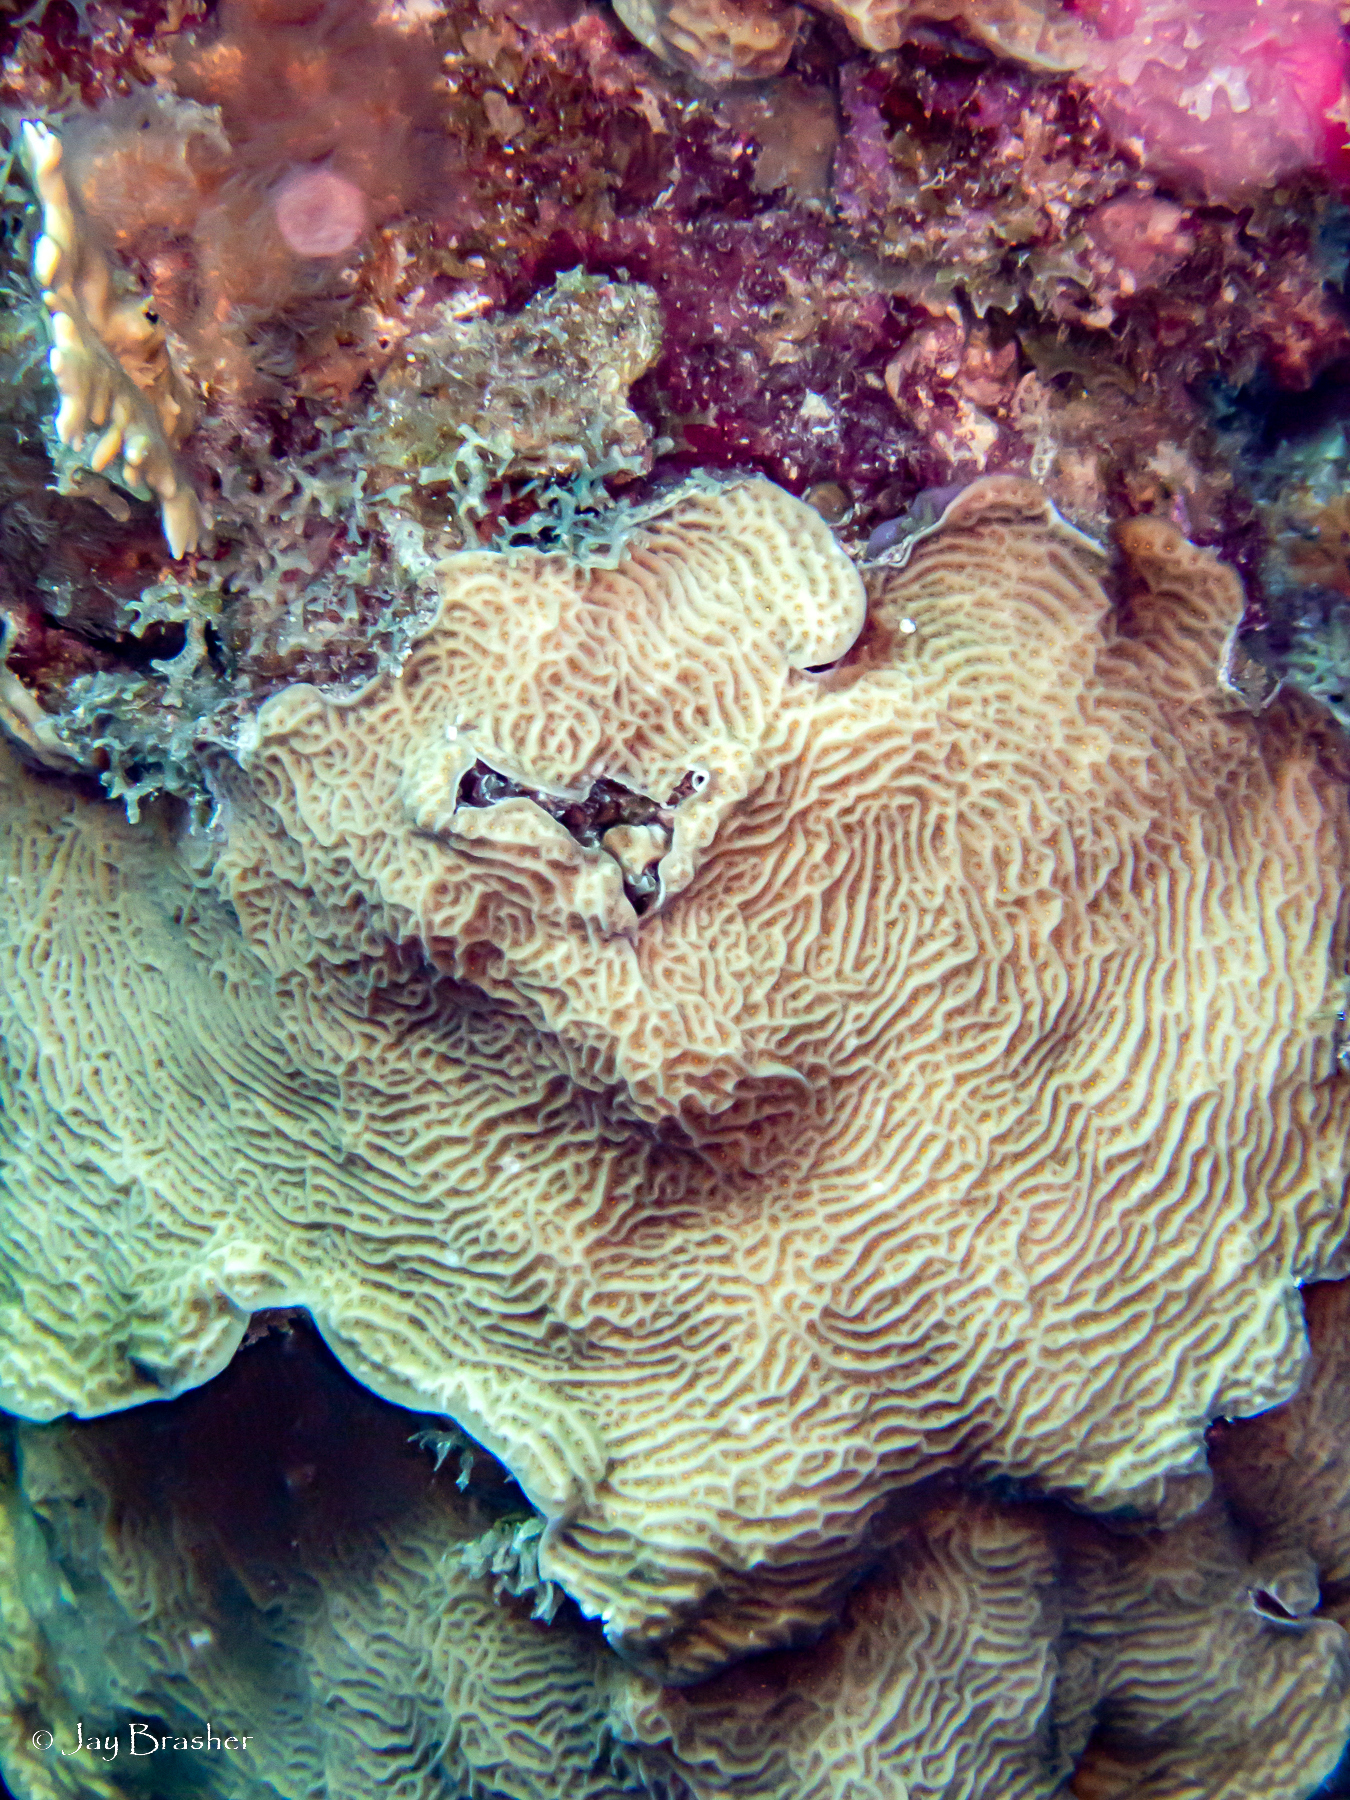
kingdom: Animalia
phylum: Cnidaria
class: Anthozoa
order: Scleractinia
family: Agariciidae
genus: Agaricia
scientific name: Agaricia agaricites
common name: Lettuce coral
